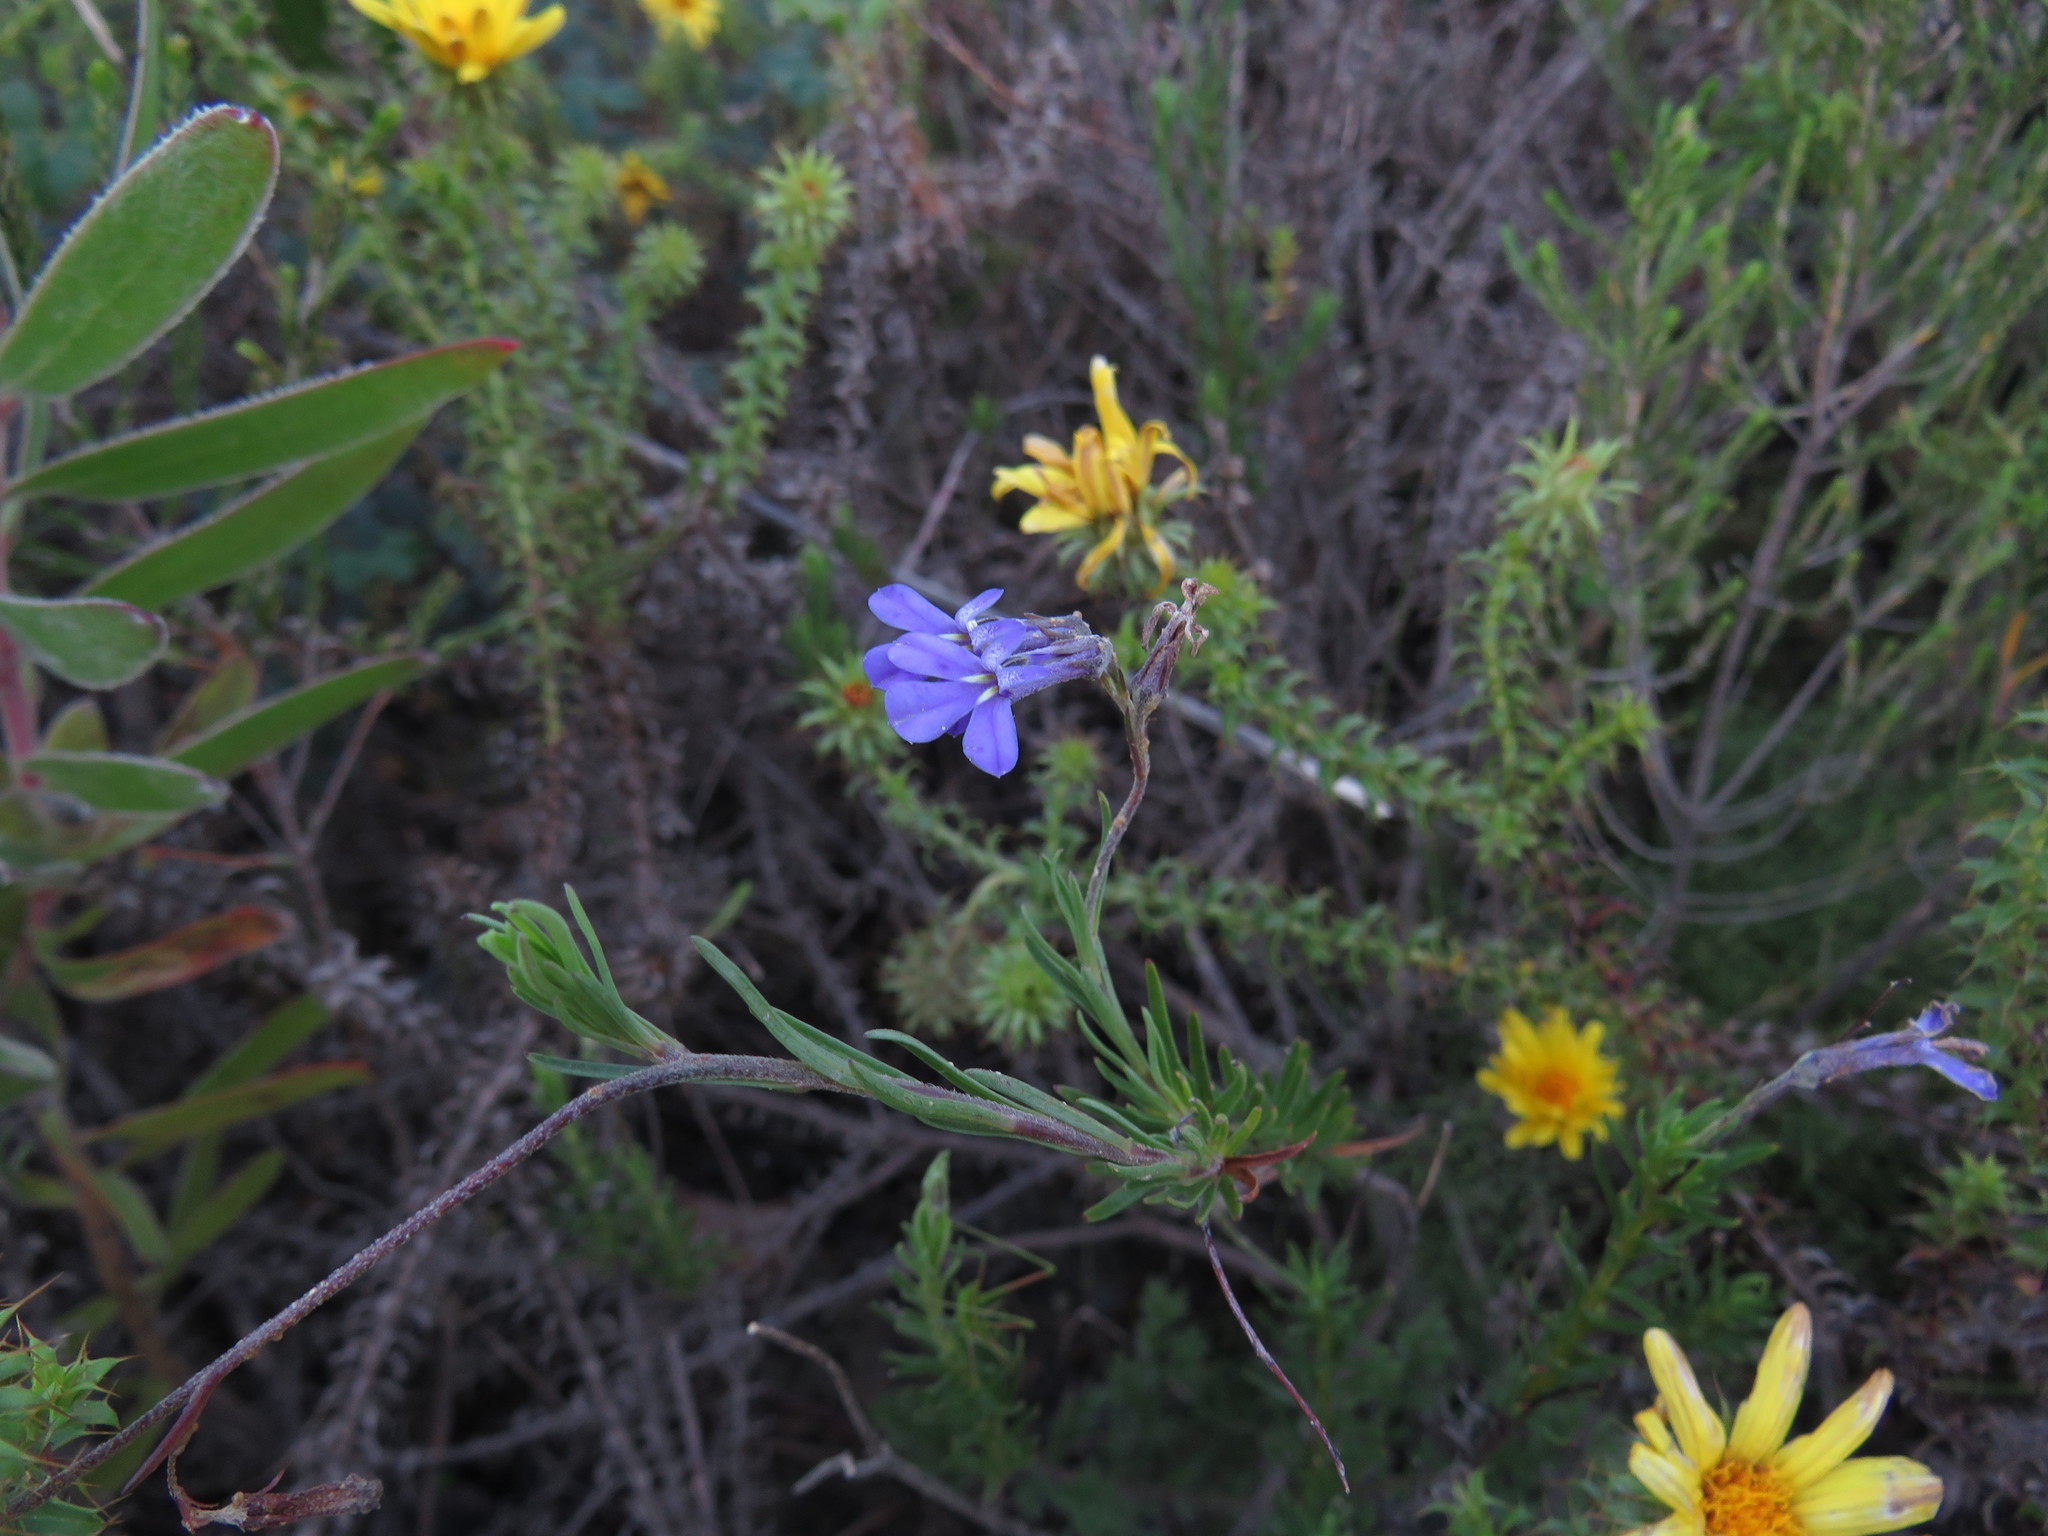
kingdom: Plantae
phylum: Tracheophyta
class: Magnoliopsida
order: Asterales
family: Campanulaceae
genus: Lobelia
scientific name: Lobelia pinifolia
